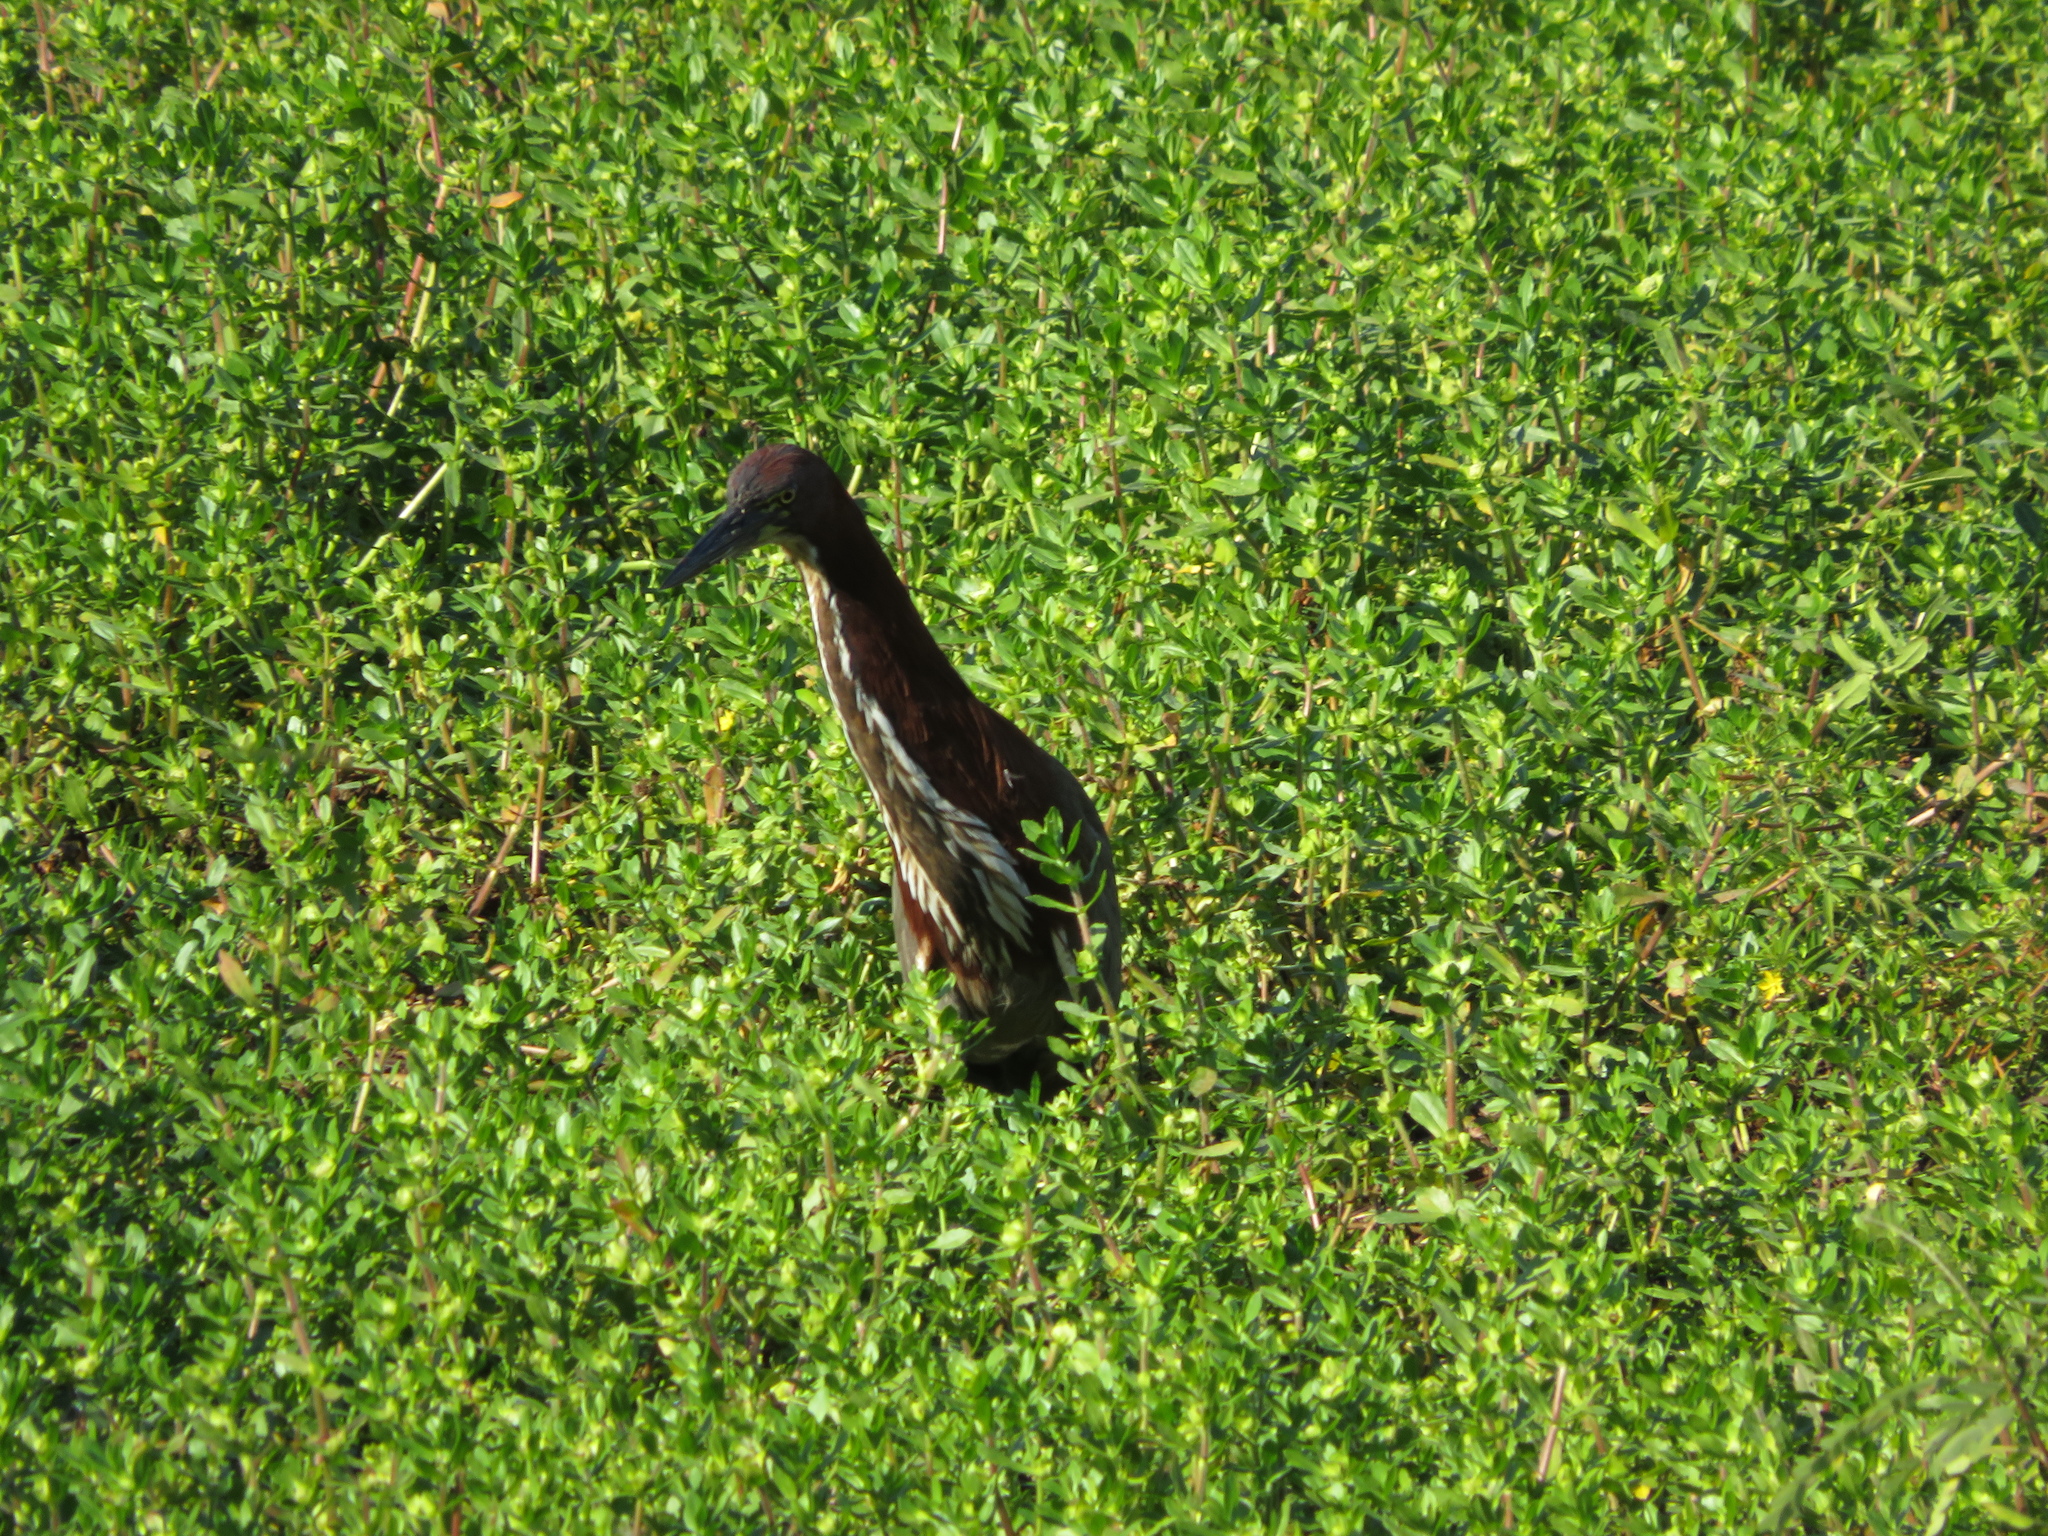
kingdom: Animalia
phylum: Chordata
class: Aves
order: Pelecaniformes
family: Ardeidae
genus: Tigrisoma
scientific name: Tigrisoma lineatum
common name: Rufescent tiger-heron
